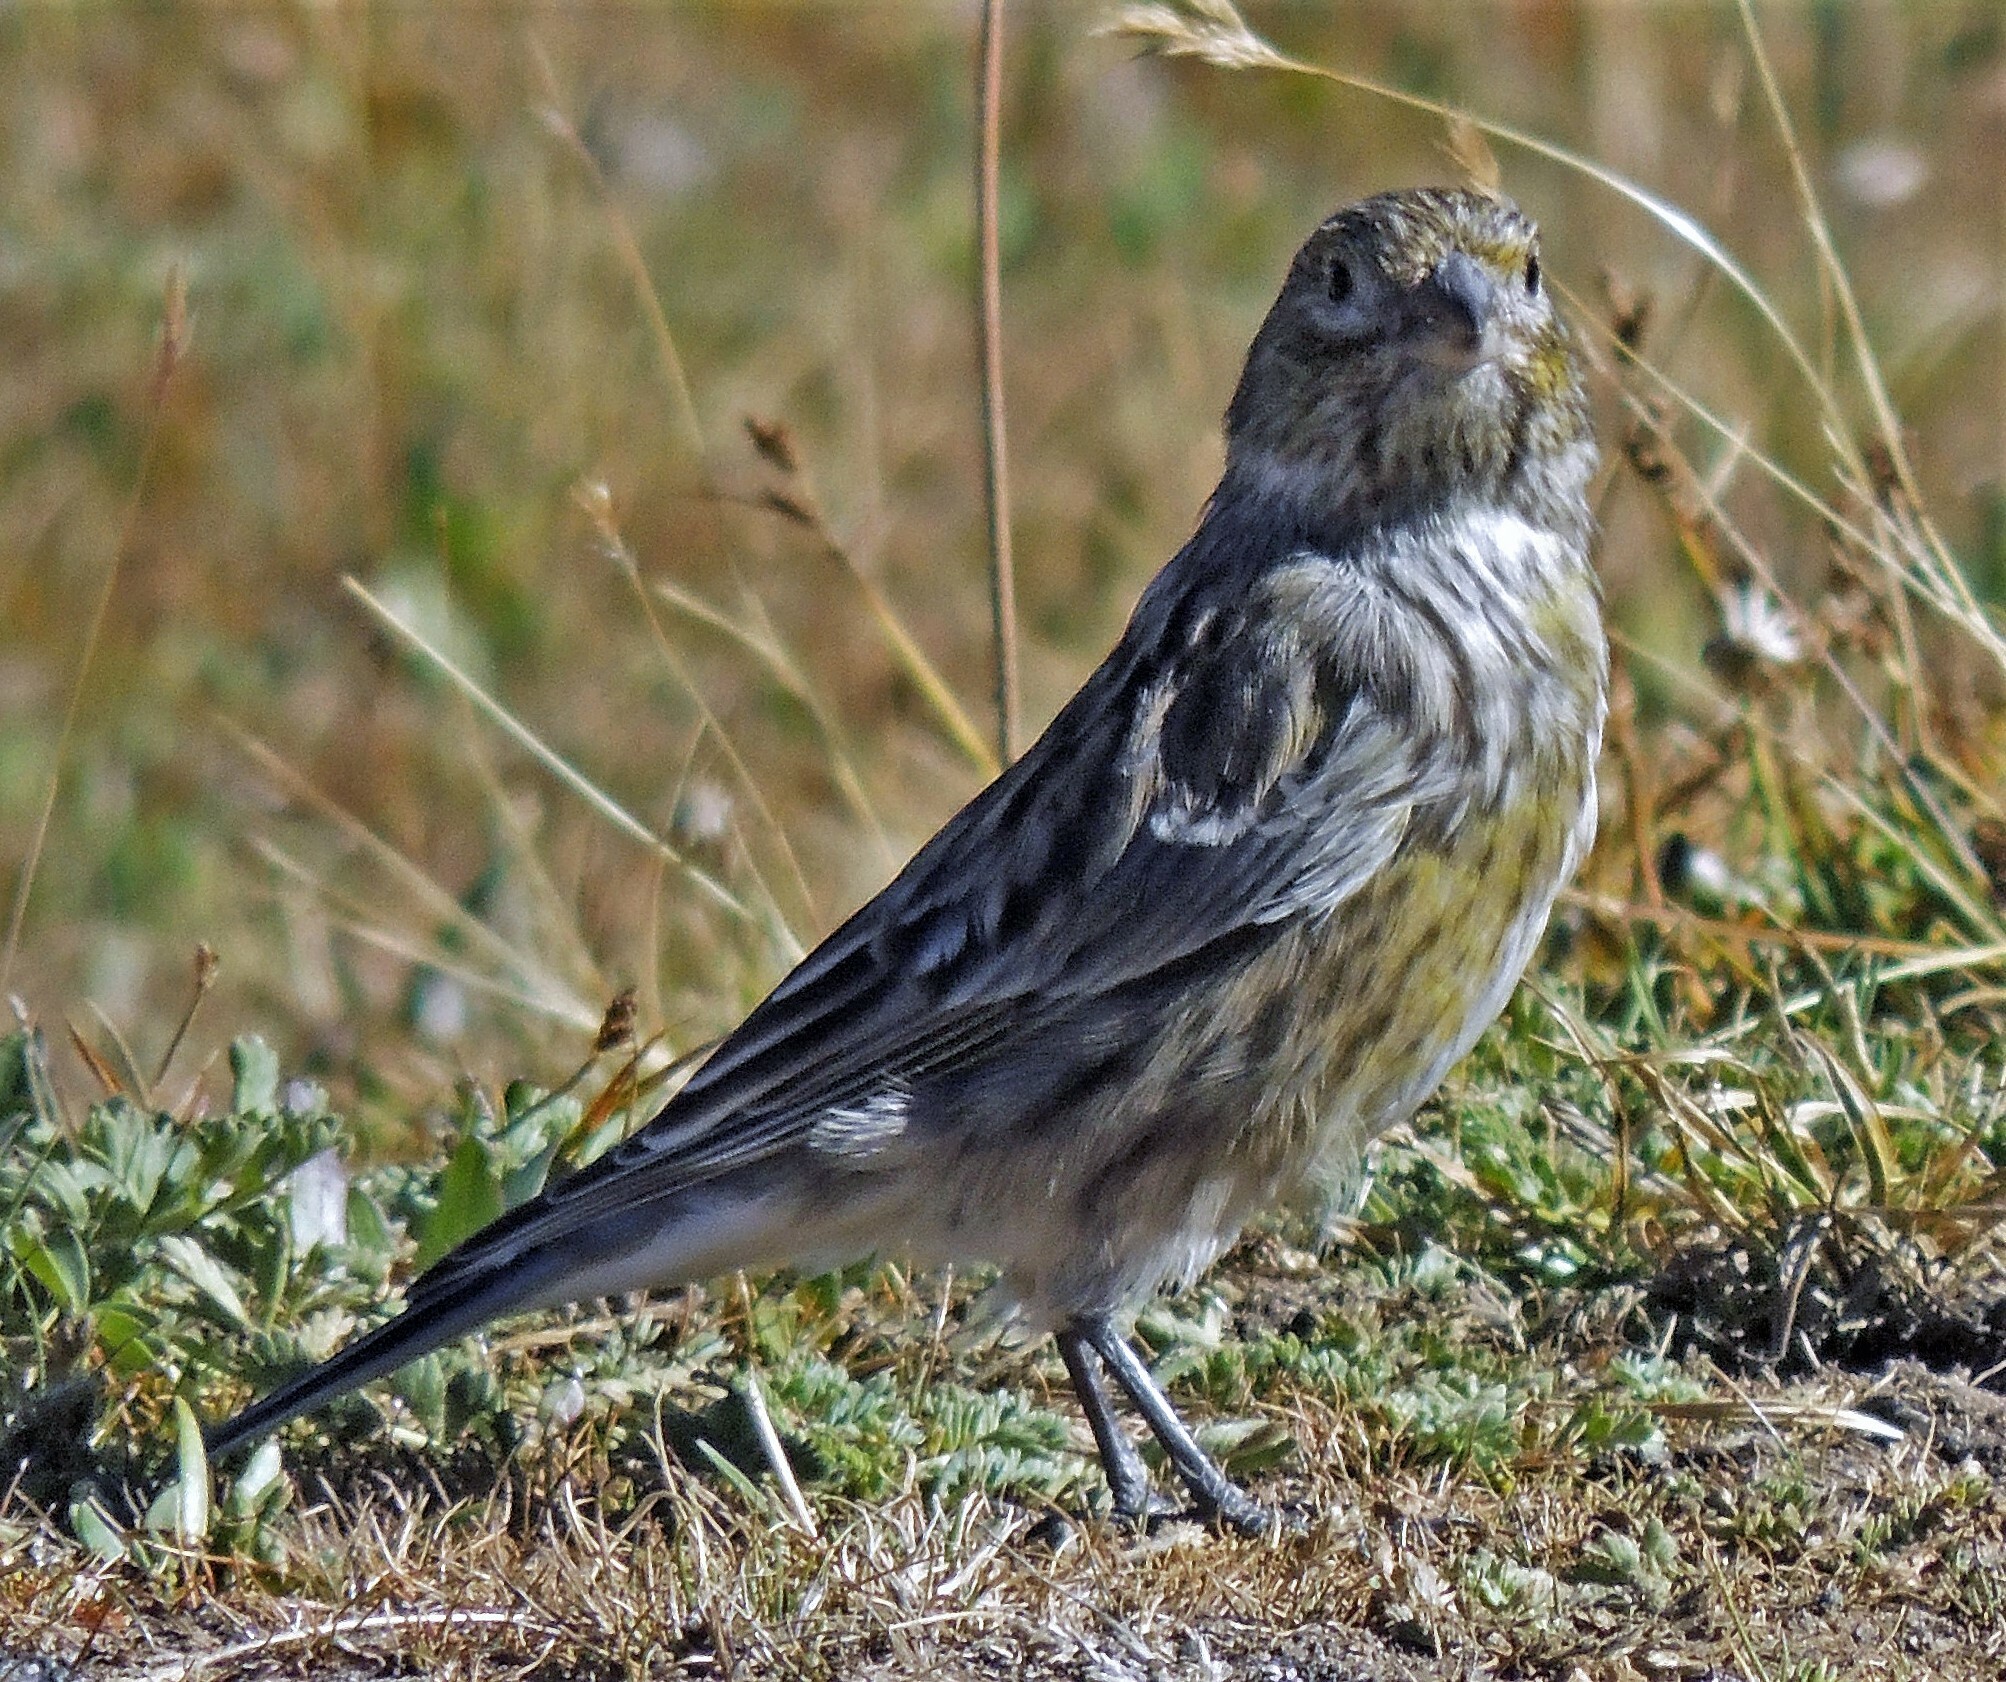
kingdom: Animalia
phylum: Chordata
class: Aves
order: Passeriformes
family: Thraupidae
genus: Melanodera
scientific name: Melanodera xanthogramma
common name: Yellow-bridled finch
